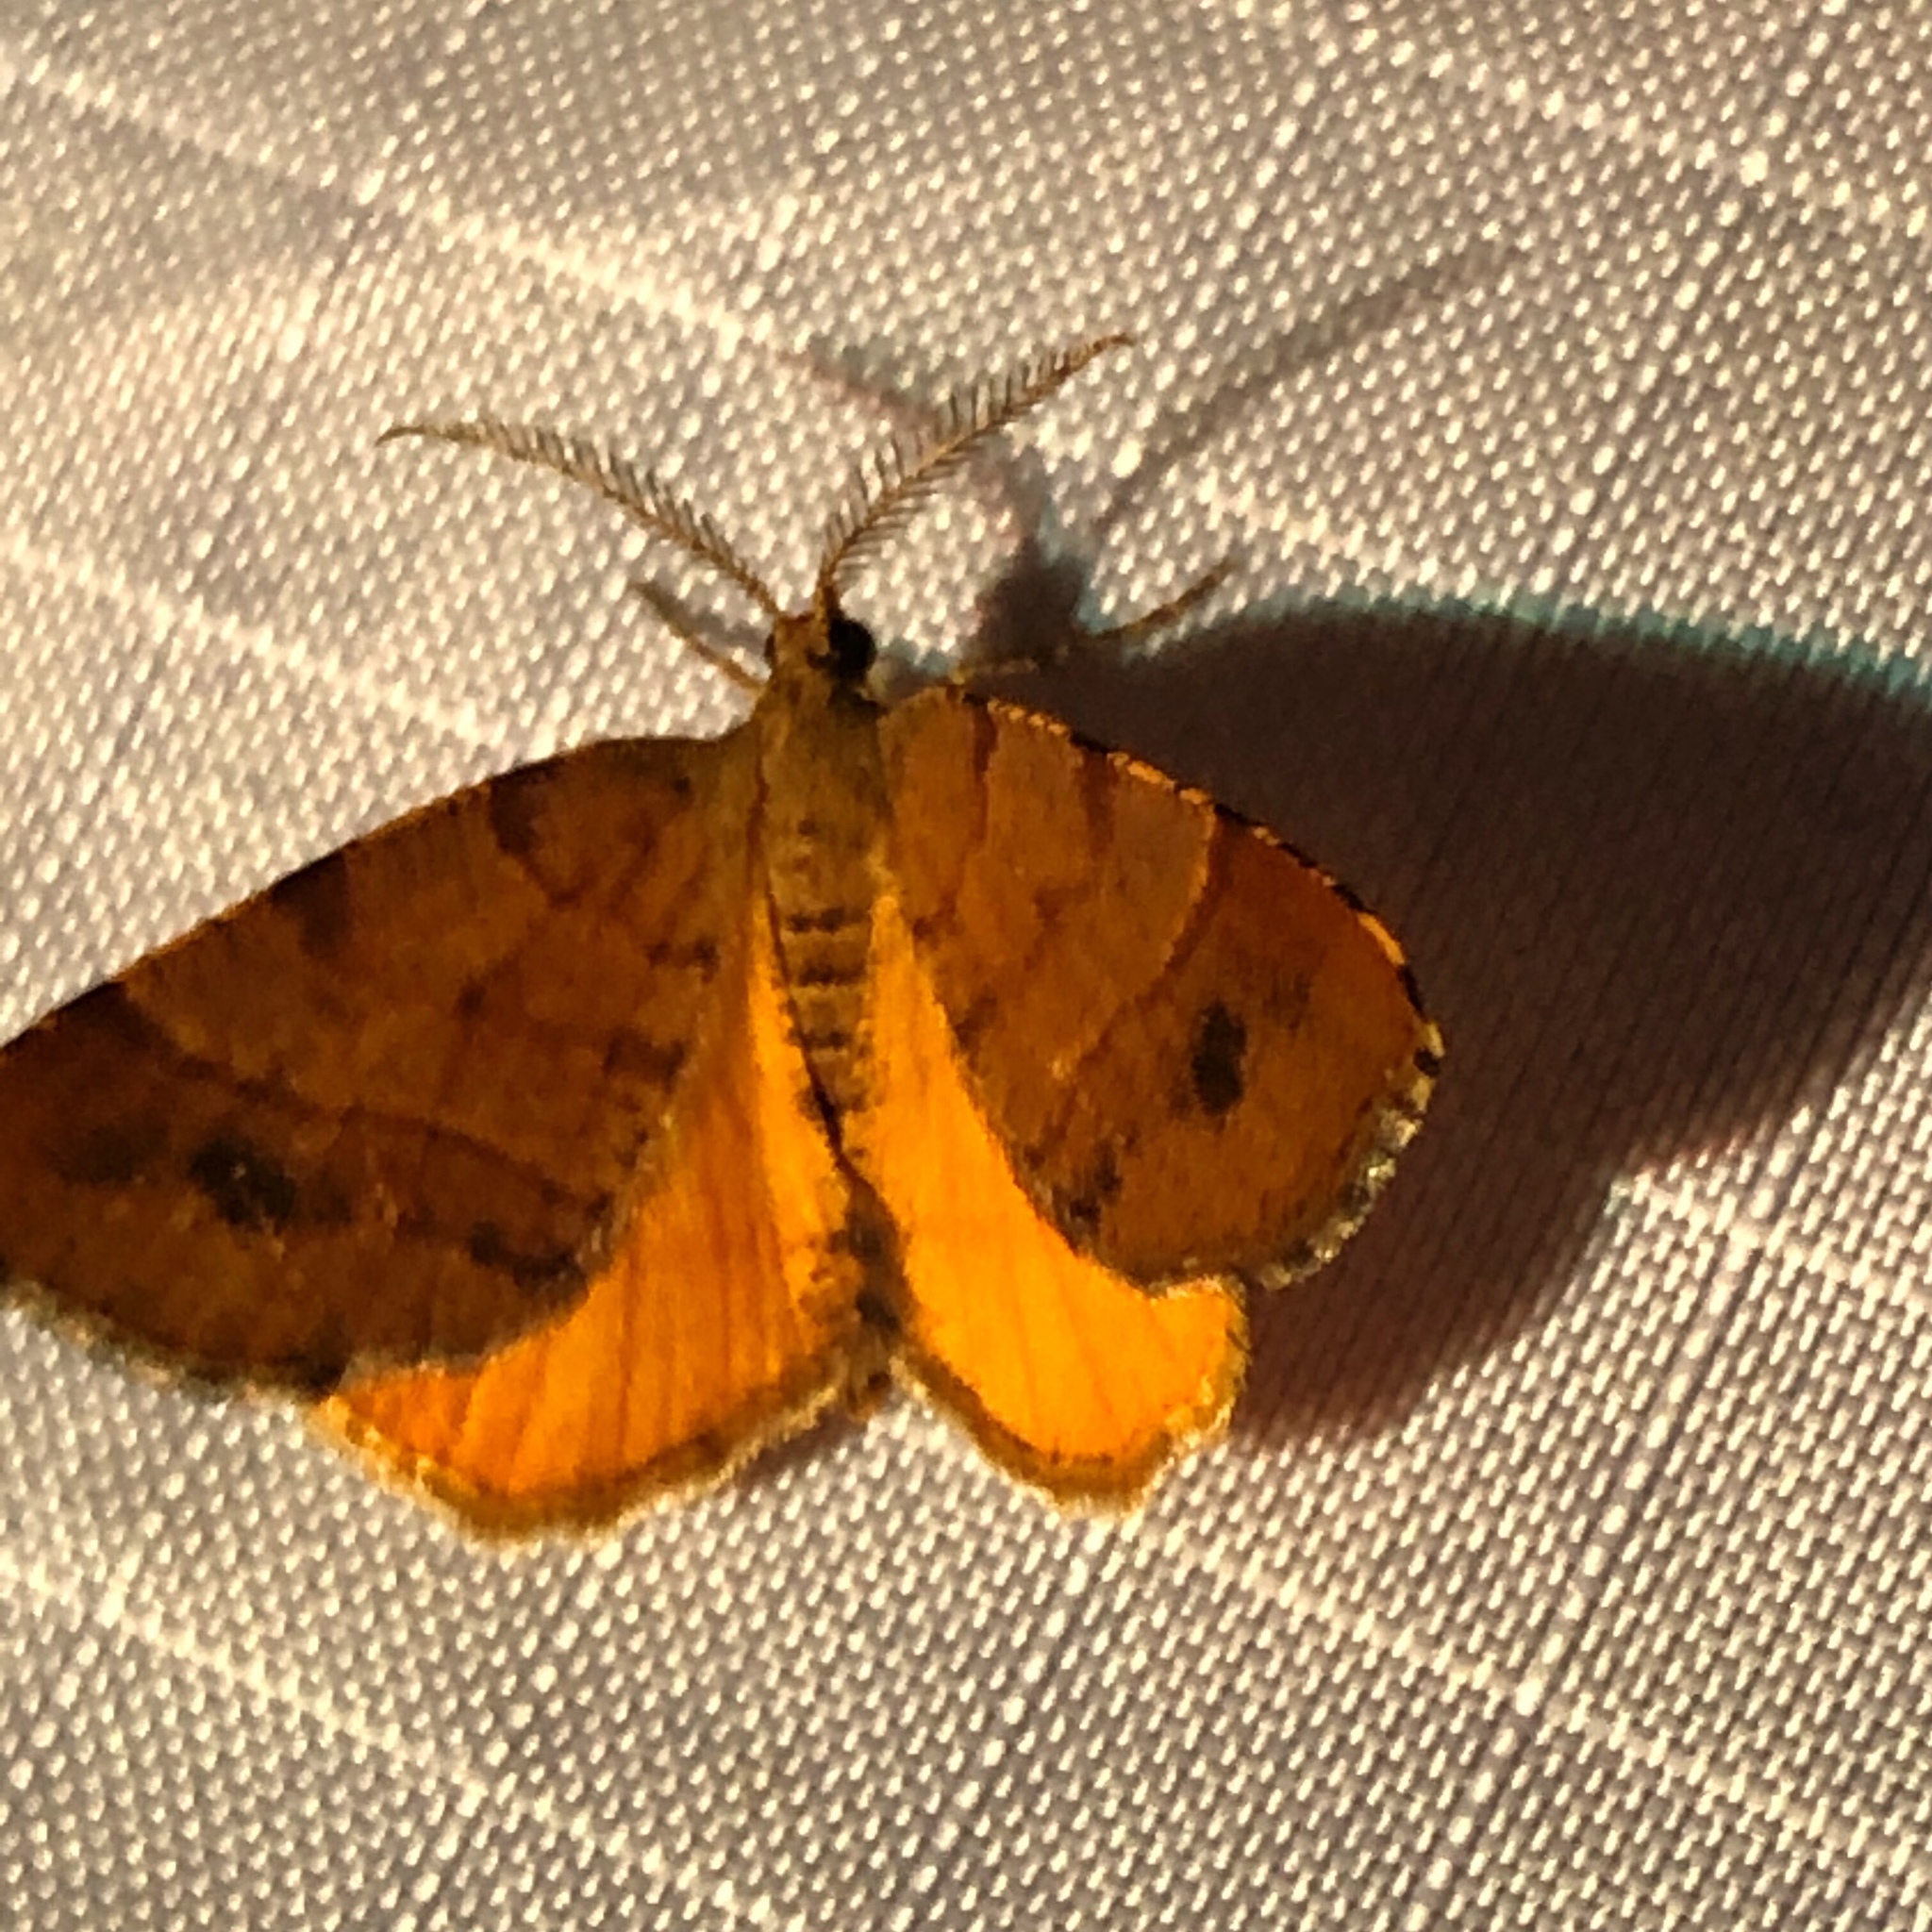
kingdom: Animalia
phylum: Arthropoda
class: Insecta
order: Lepidoptera
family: Geometridae
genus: Mellilla
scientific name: Mellilla xanthometata
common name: Orange wing moth
